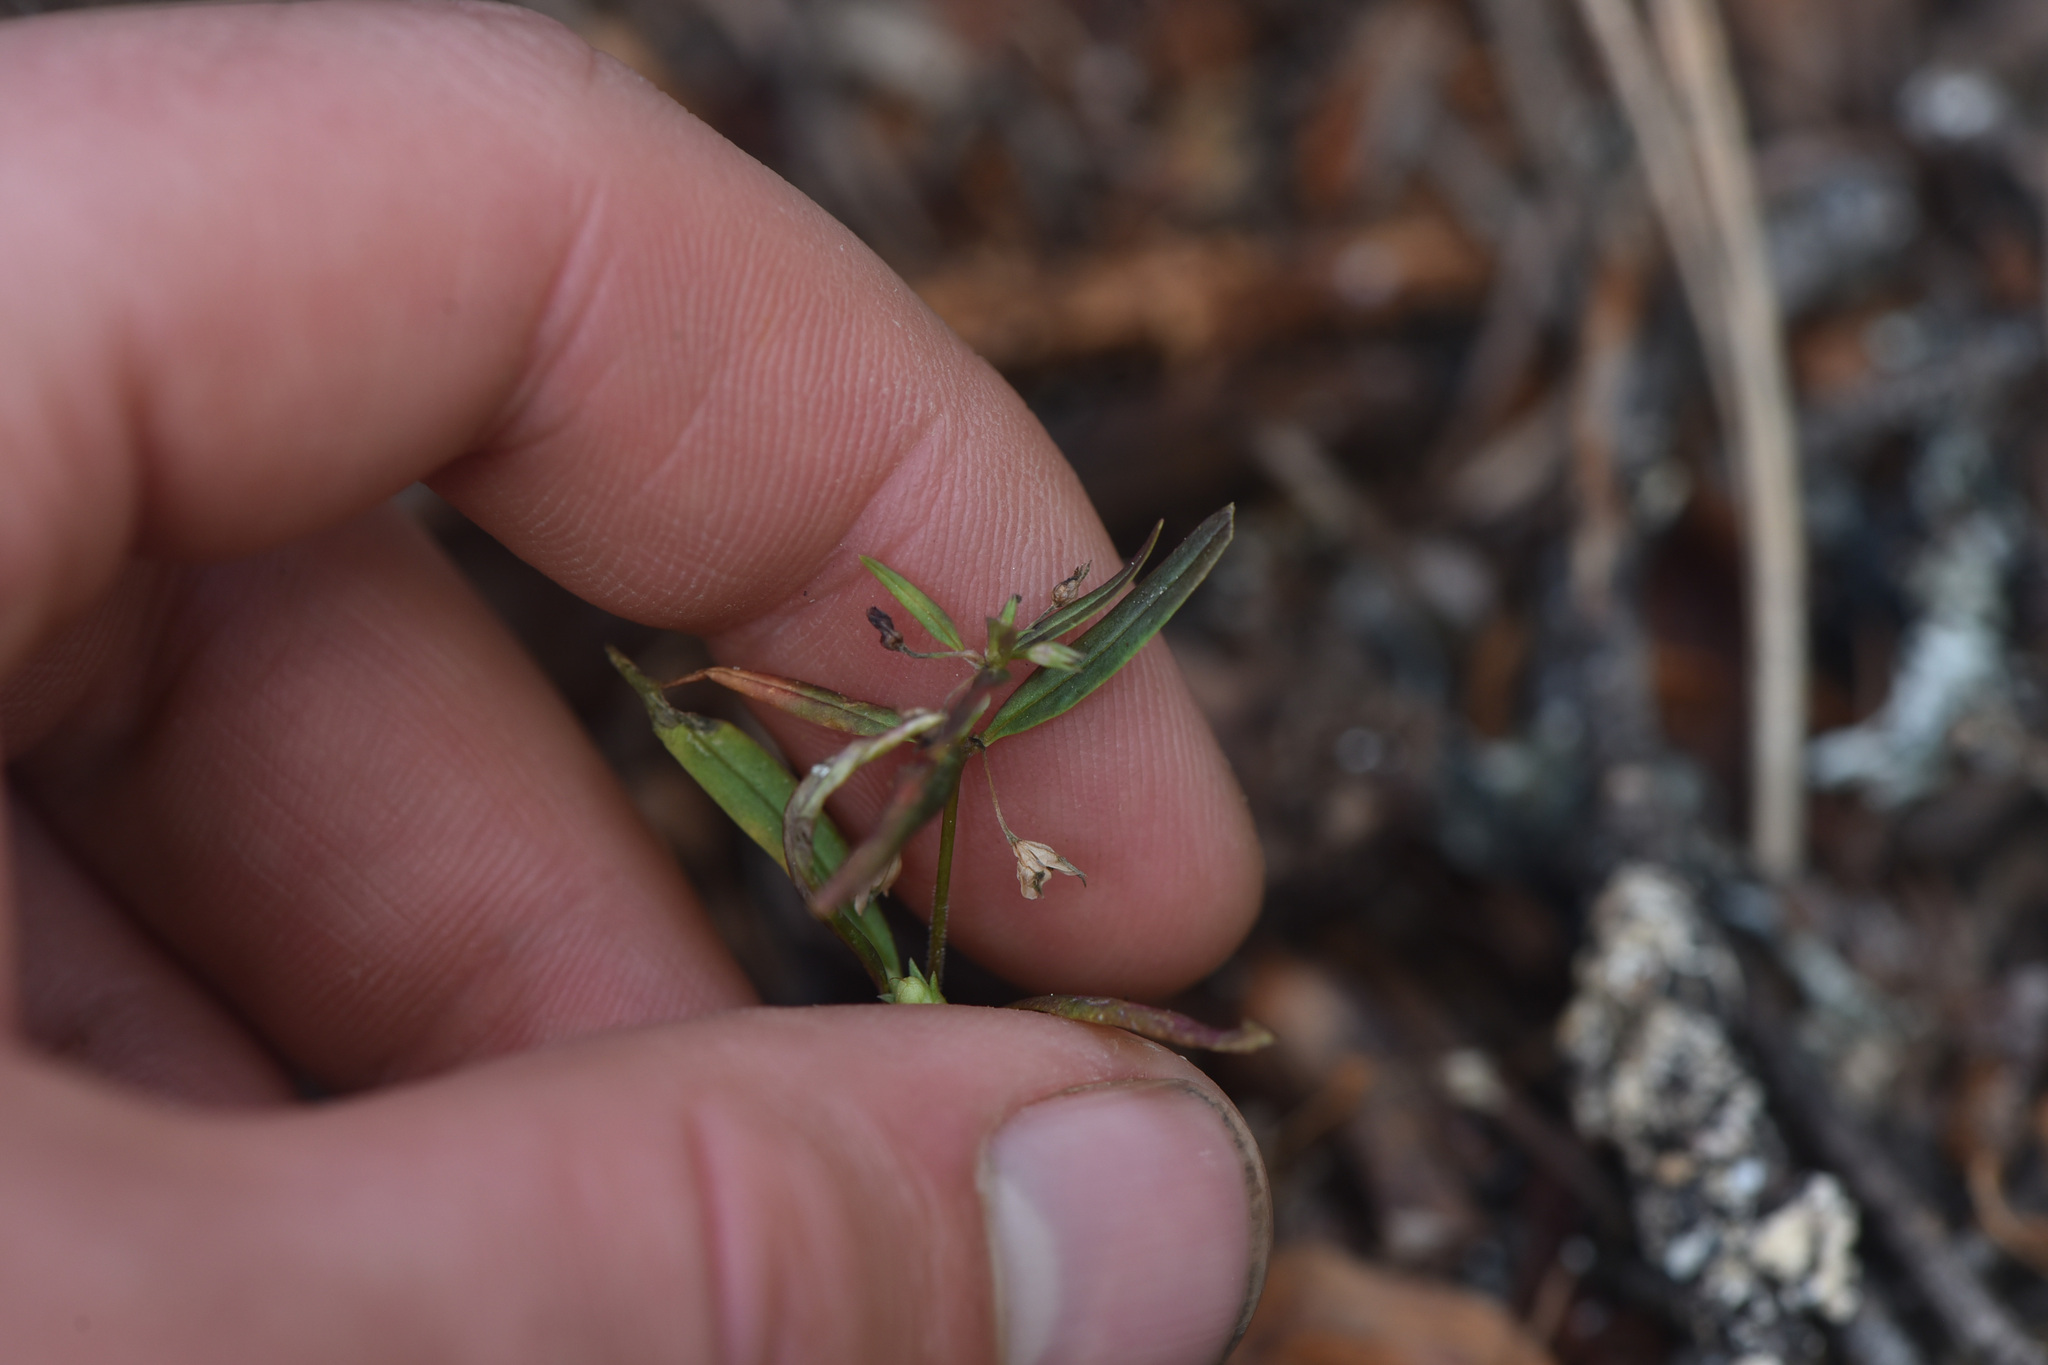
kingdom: Plantae
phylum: Tracheophyta
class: Magnoliopsida
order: Lamiales
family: Plantaginaceae
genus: Collinsia
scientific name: Collinsia parviflora
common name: Blue-lips
